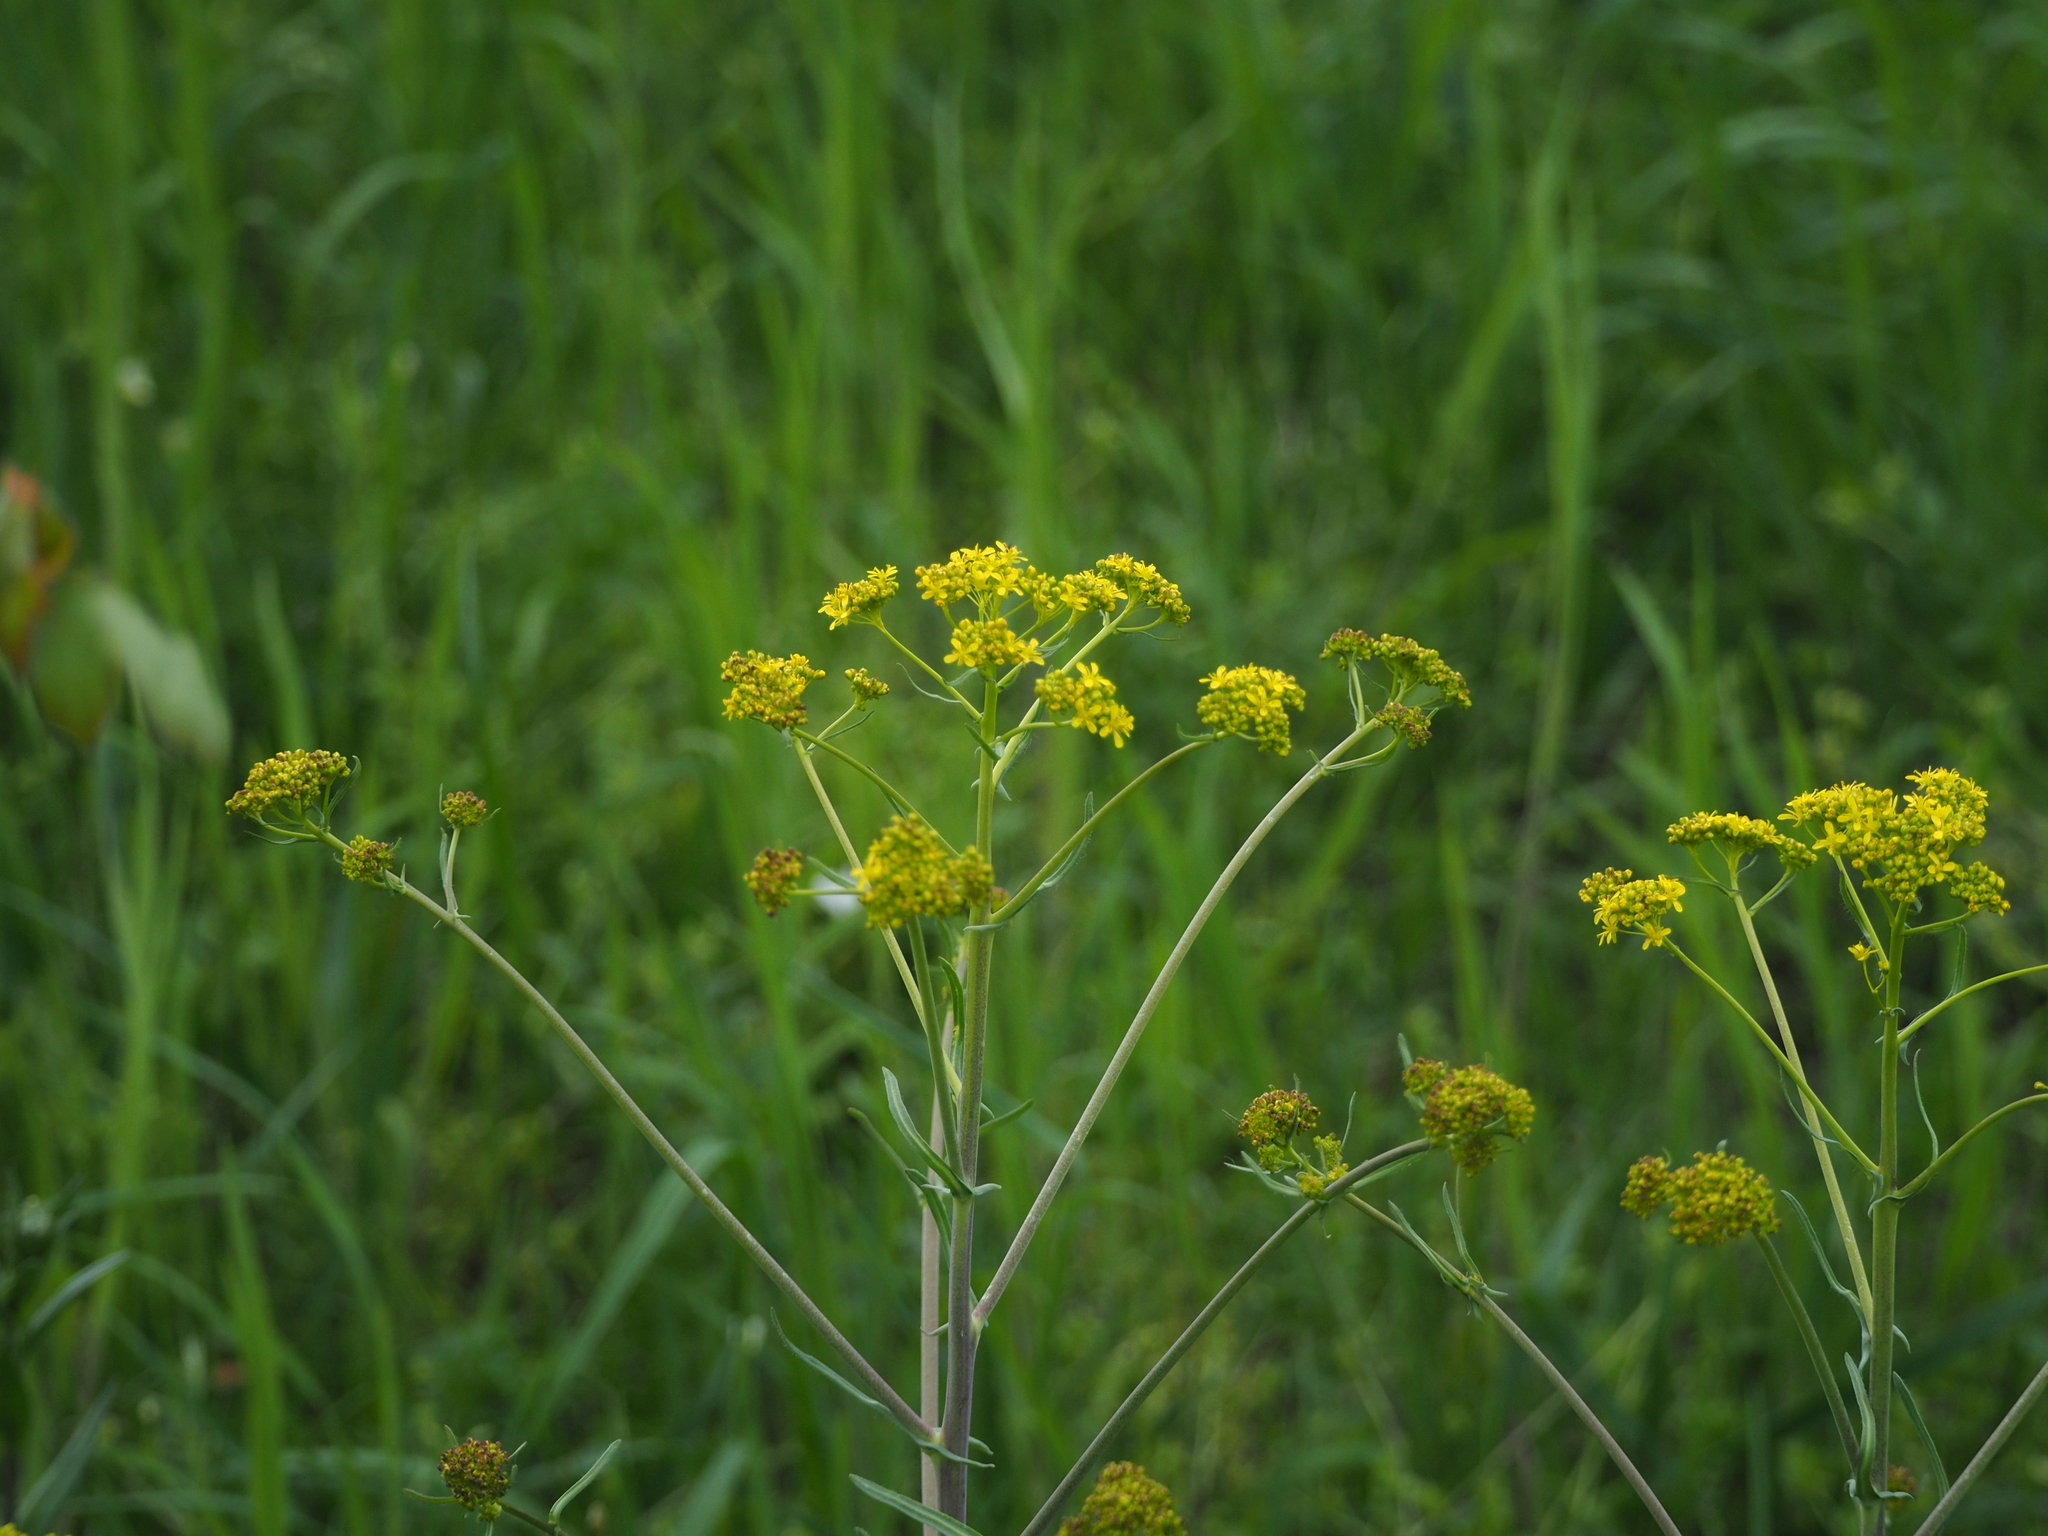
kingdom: Plantae
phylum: Tracheophyta
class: Magnoliopsida
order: Brassicales
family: Brassicaceae
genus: Isatis
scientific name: Isatis tinctoria
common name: Woad
